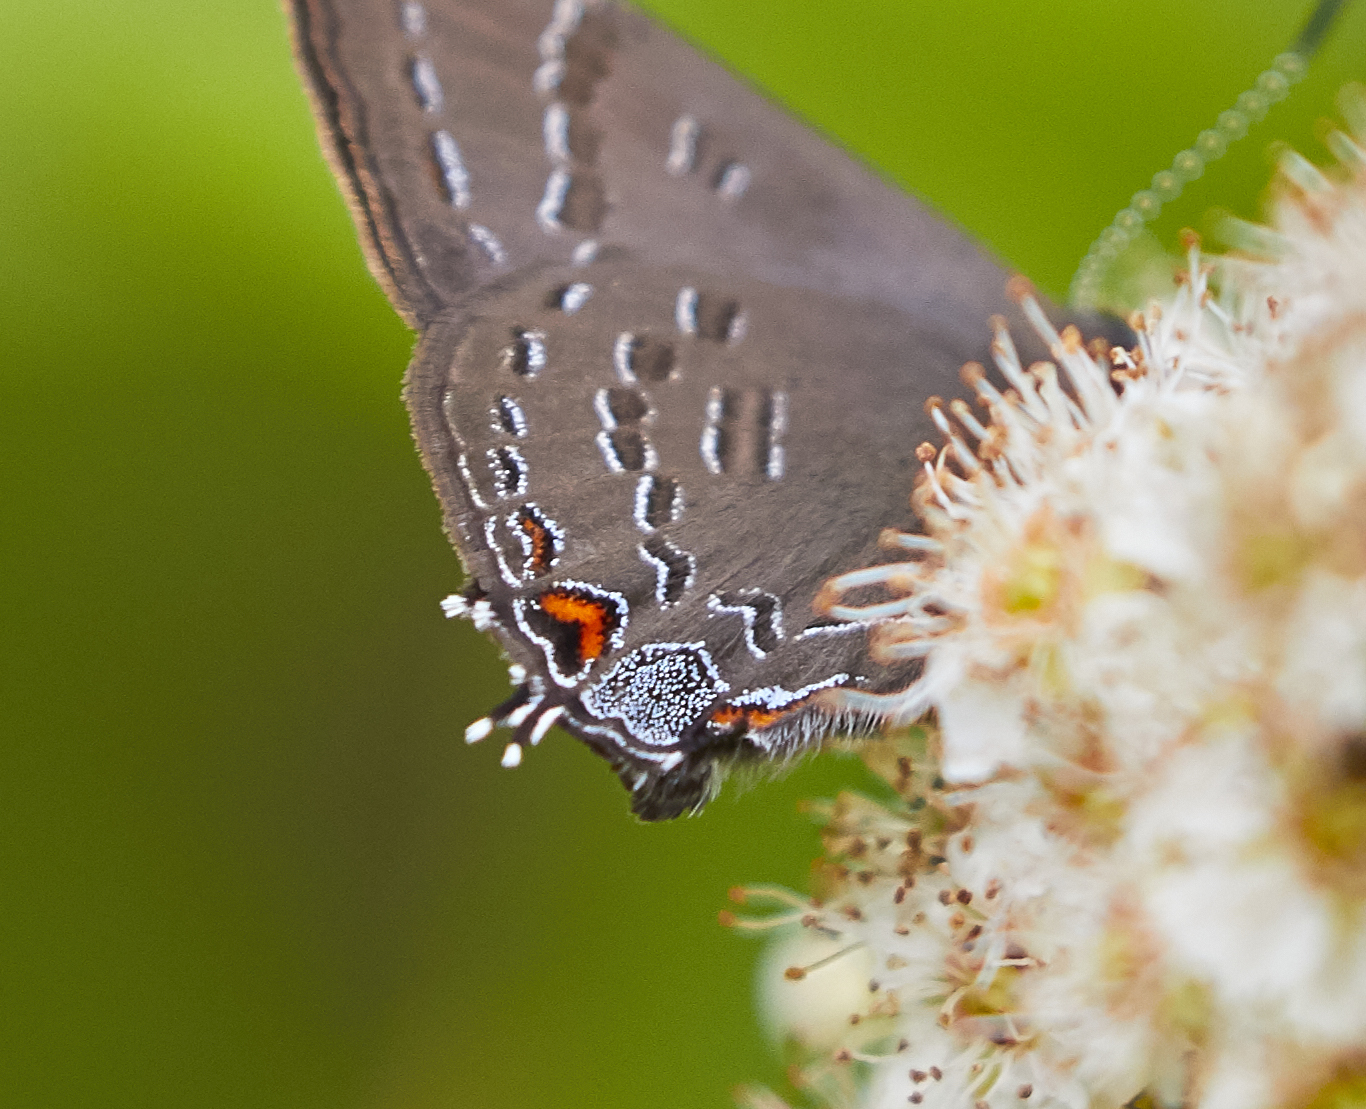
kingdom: Animalia
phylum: Arthropoda
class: Insecta
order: Lepidoptera
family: Lycaenidae
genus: Satyrium
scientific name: Satyrium calanus
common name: Banded hairstreak
